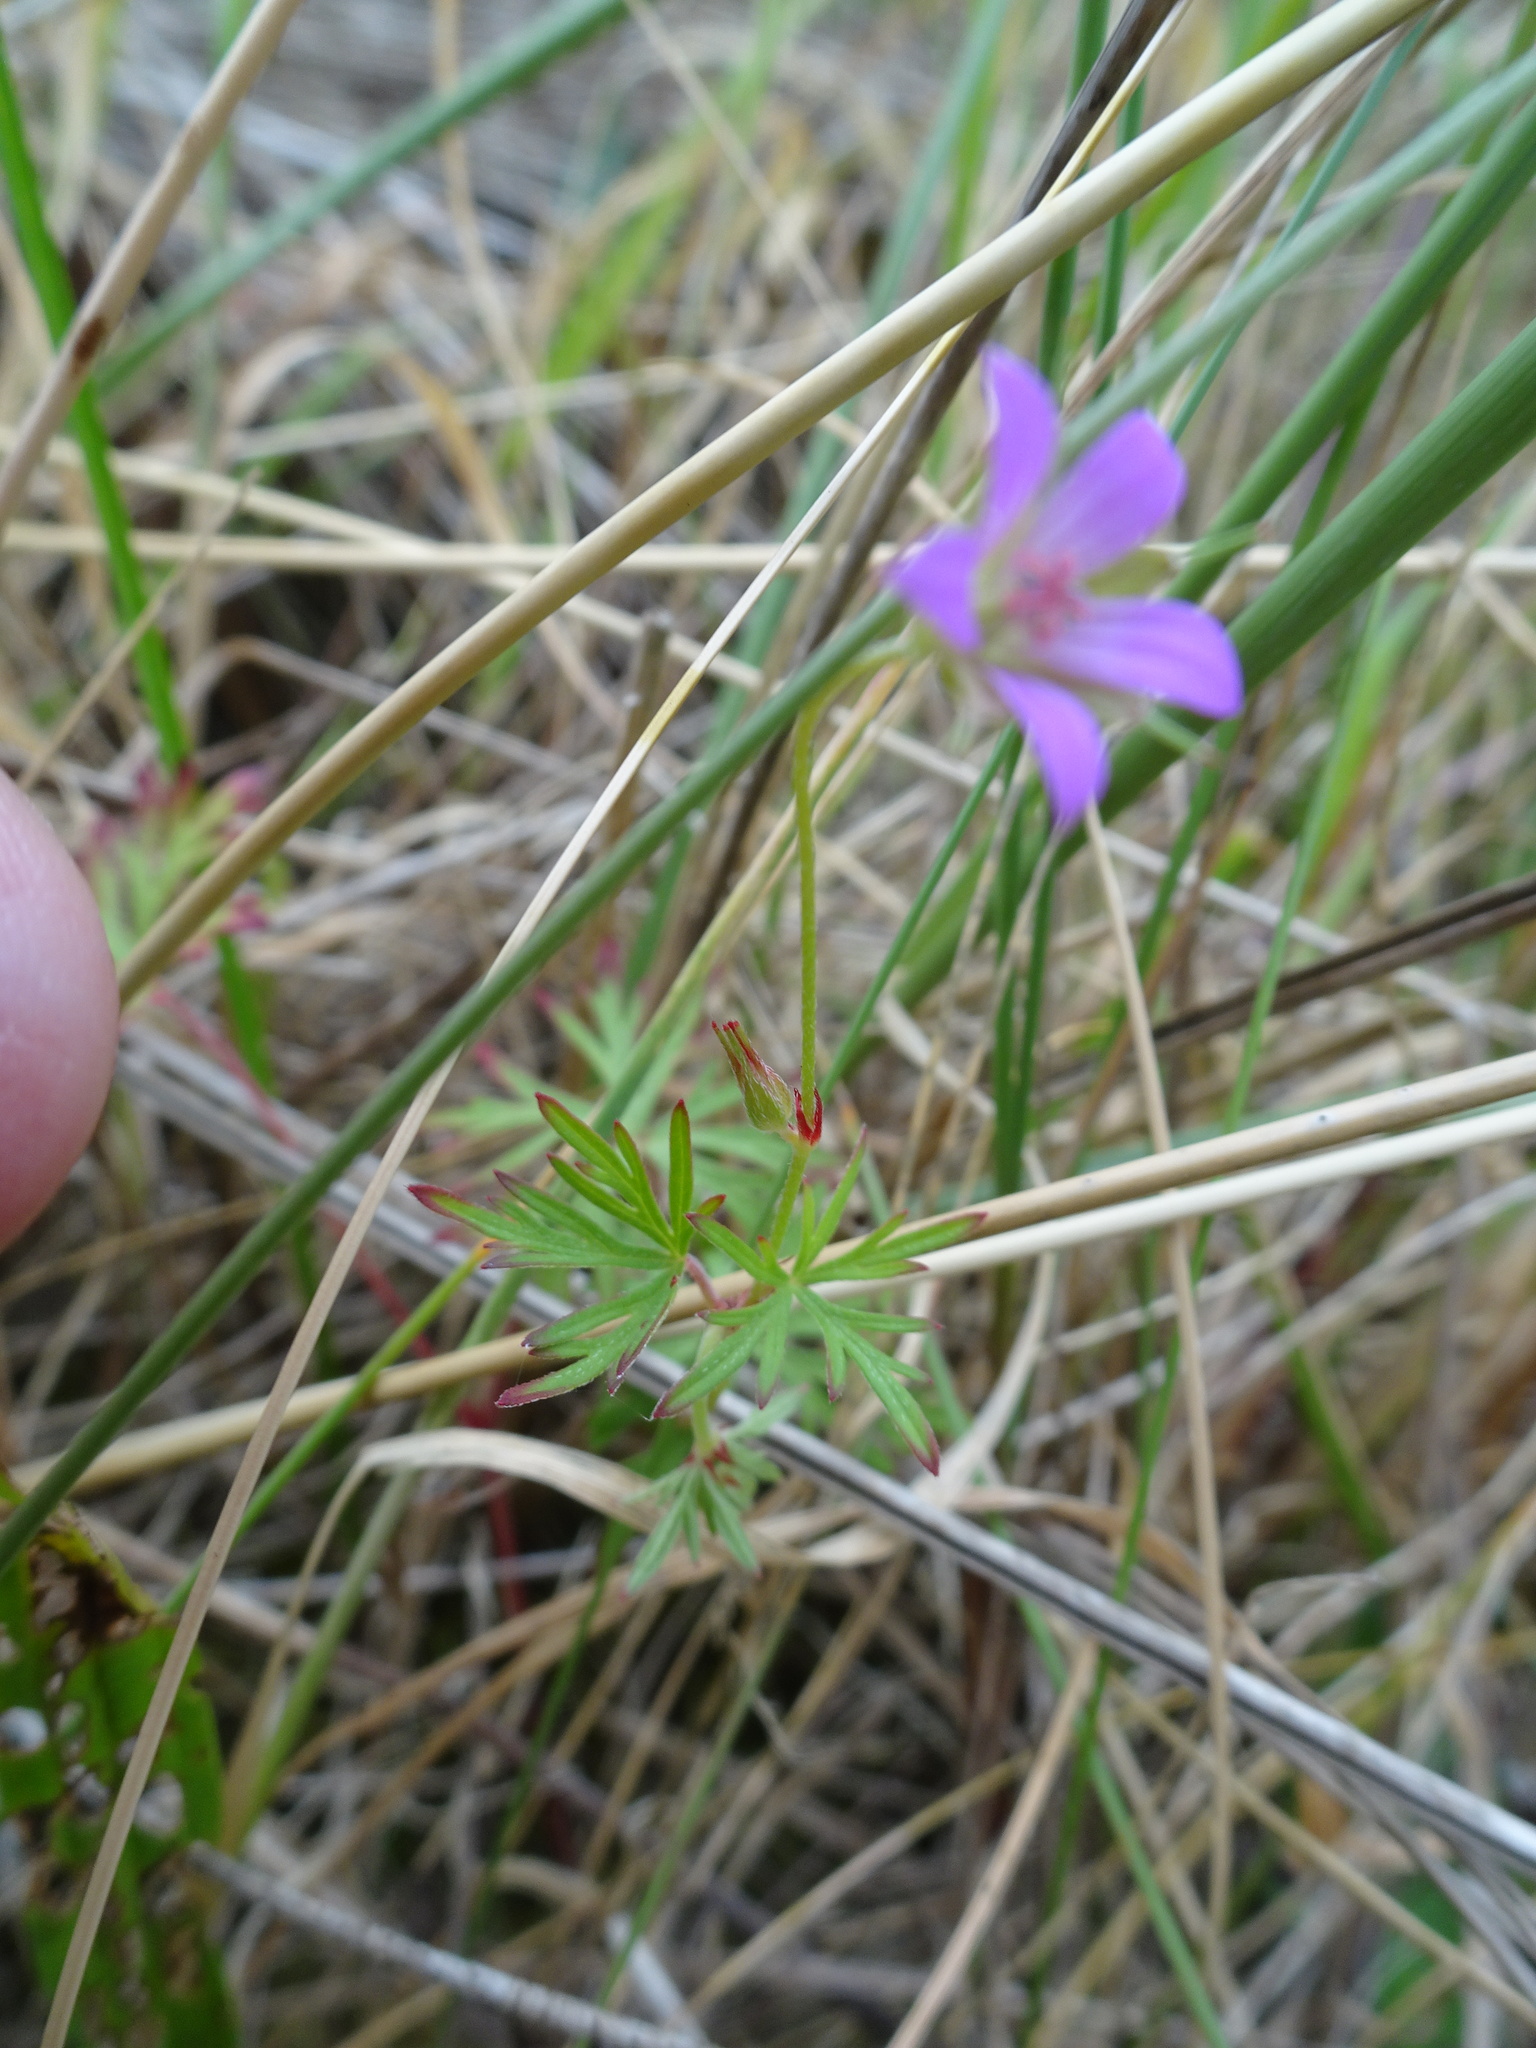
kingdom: Plantae
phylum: Tracheophyta
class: Magnoliopsida
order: Geraniales
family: Geraniaceae
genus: Geranium
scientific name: Geranium columbinum
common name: Long-stalked crane's-bill
